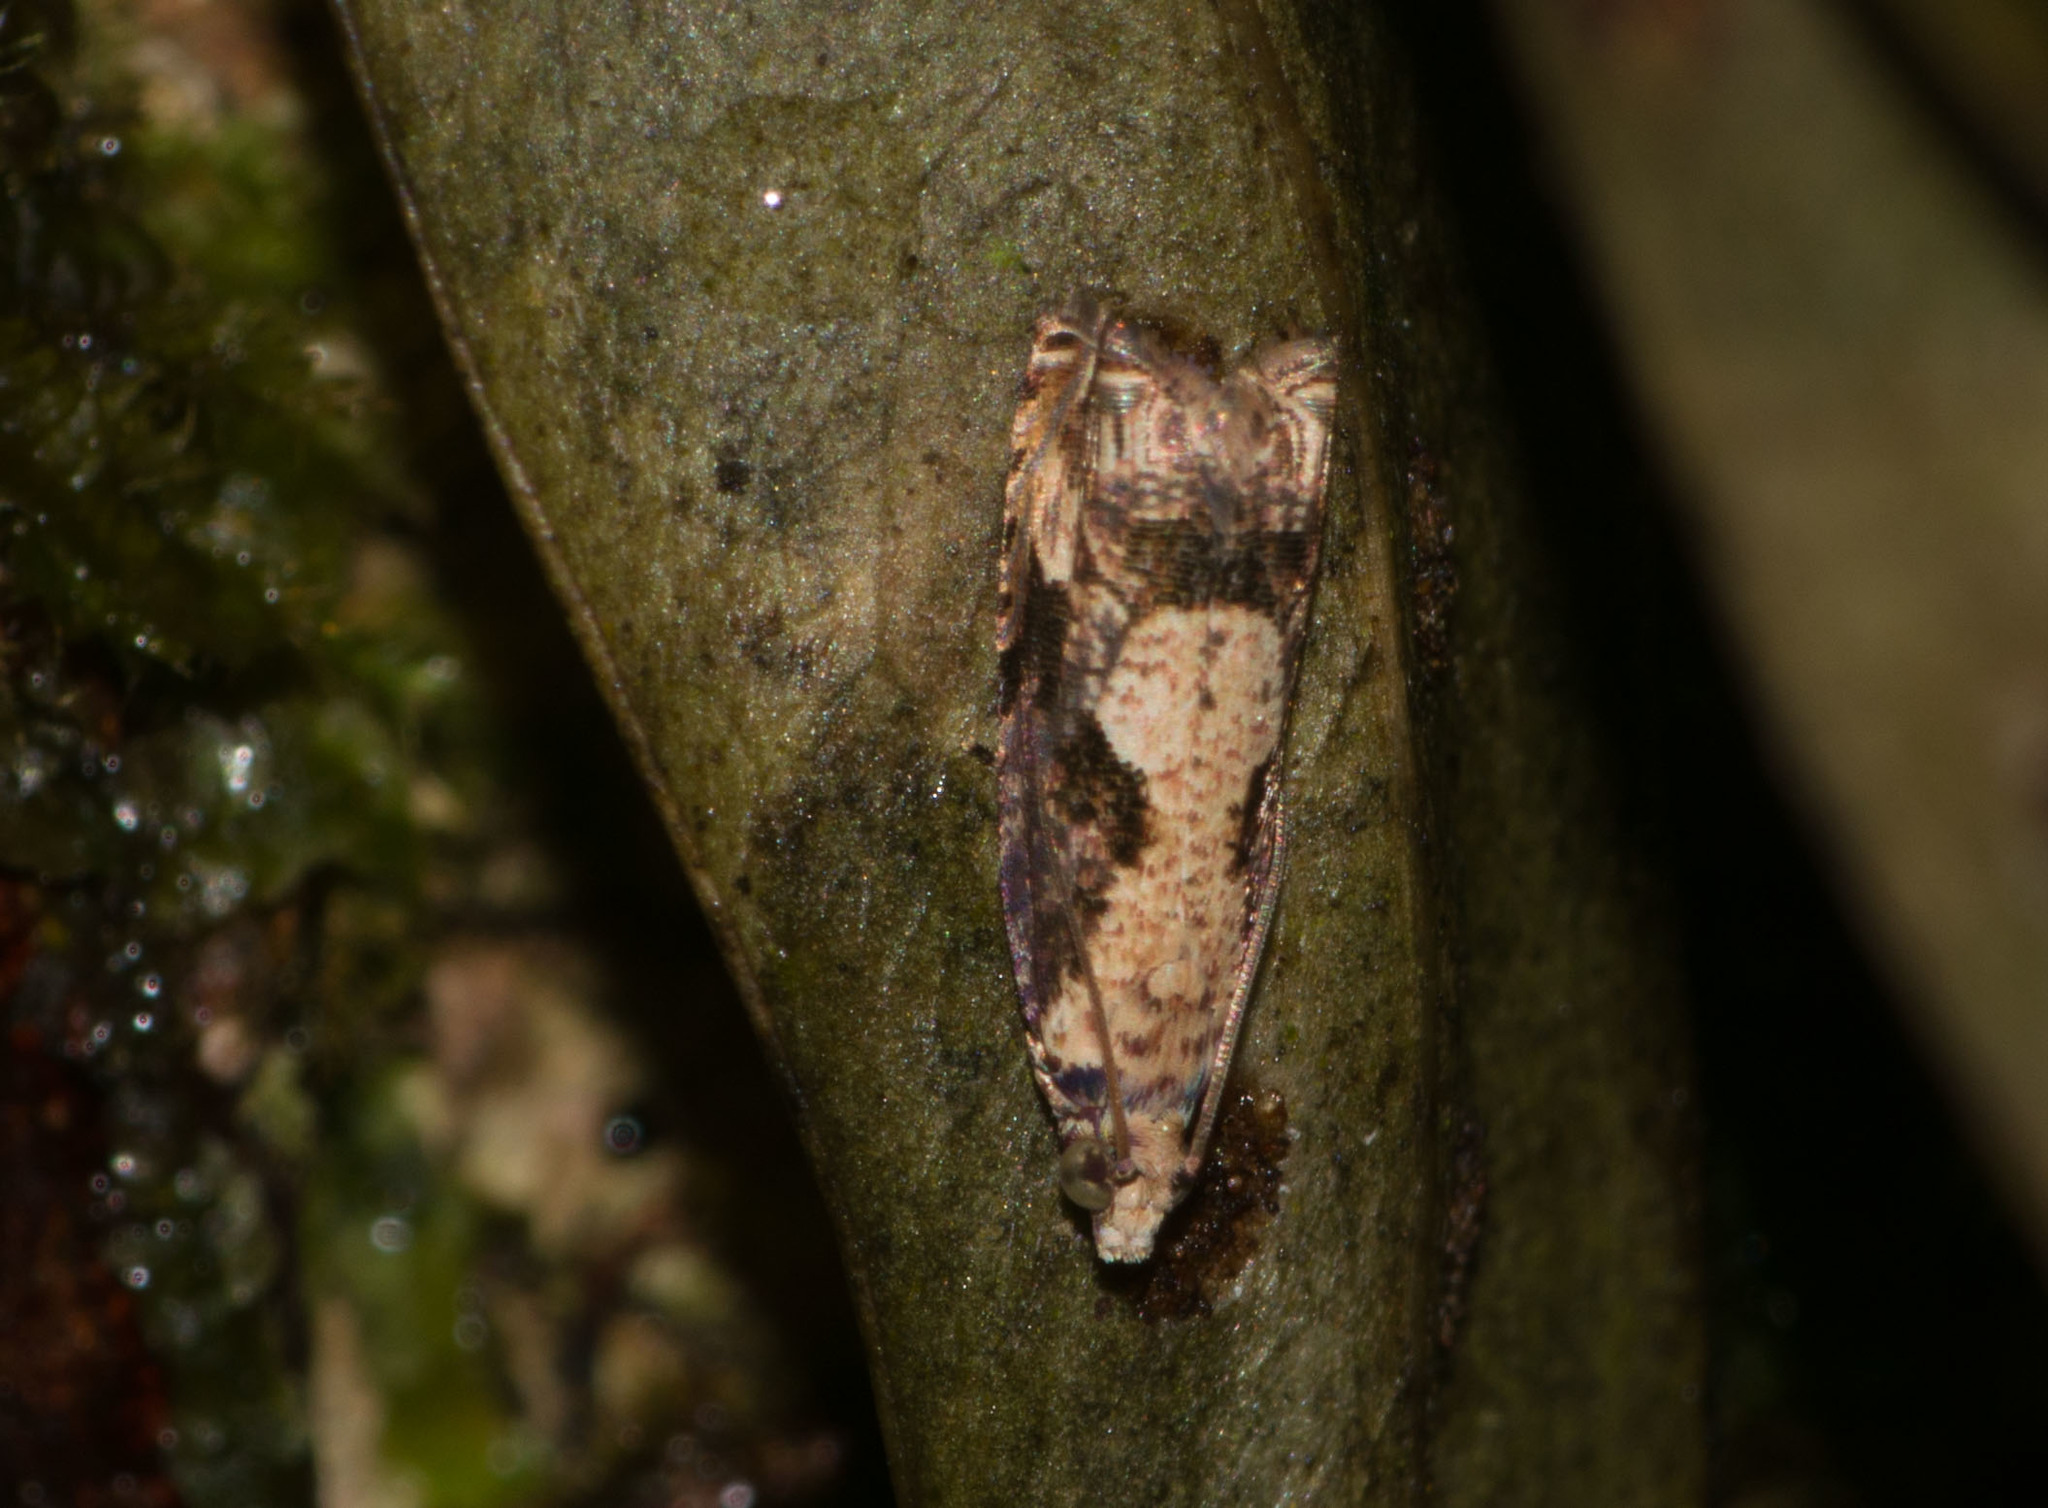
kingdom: Animalia
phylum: Arthropoda
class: Insecta
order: Lepidoptera
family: Tortricidae
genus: Episimus
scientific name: Episimus unguiculus
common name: Brazilian peppertree leaflet rolling moth
